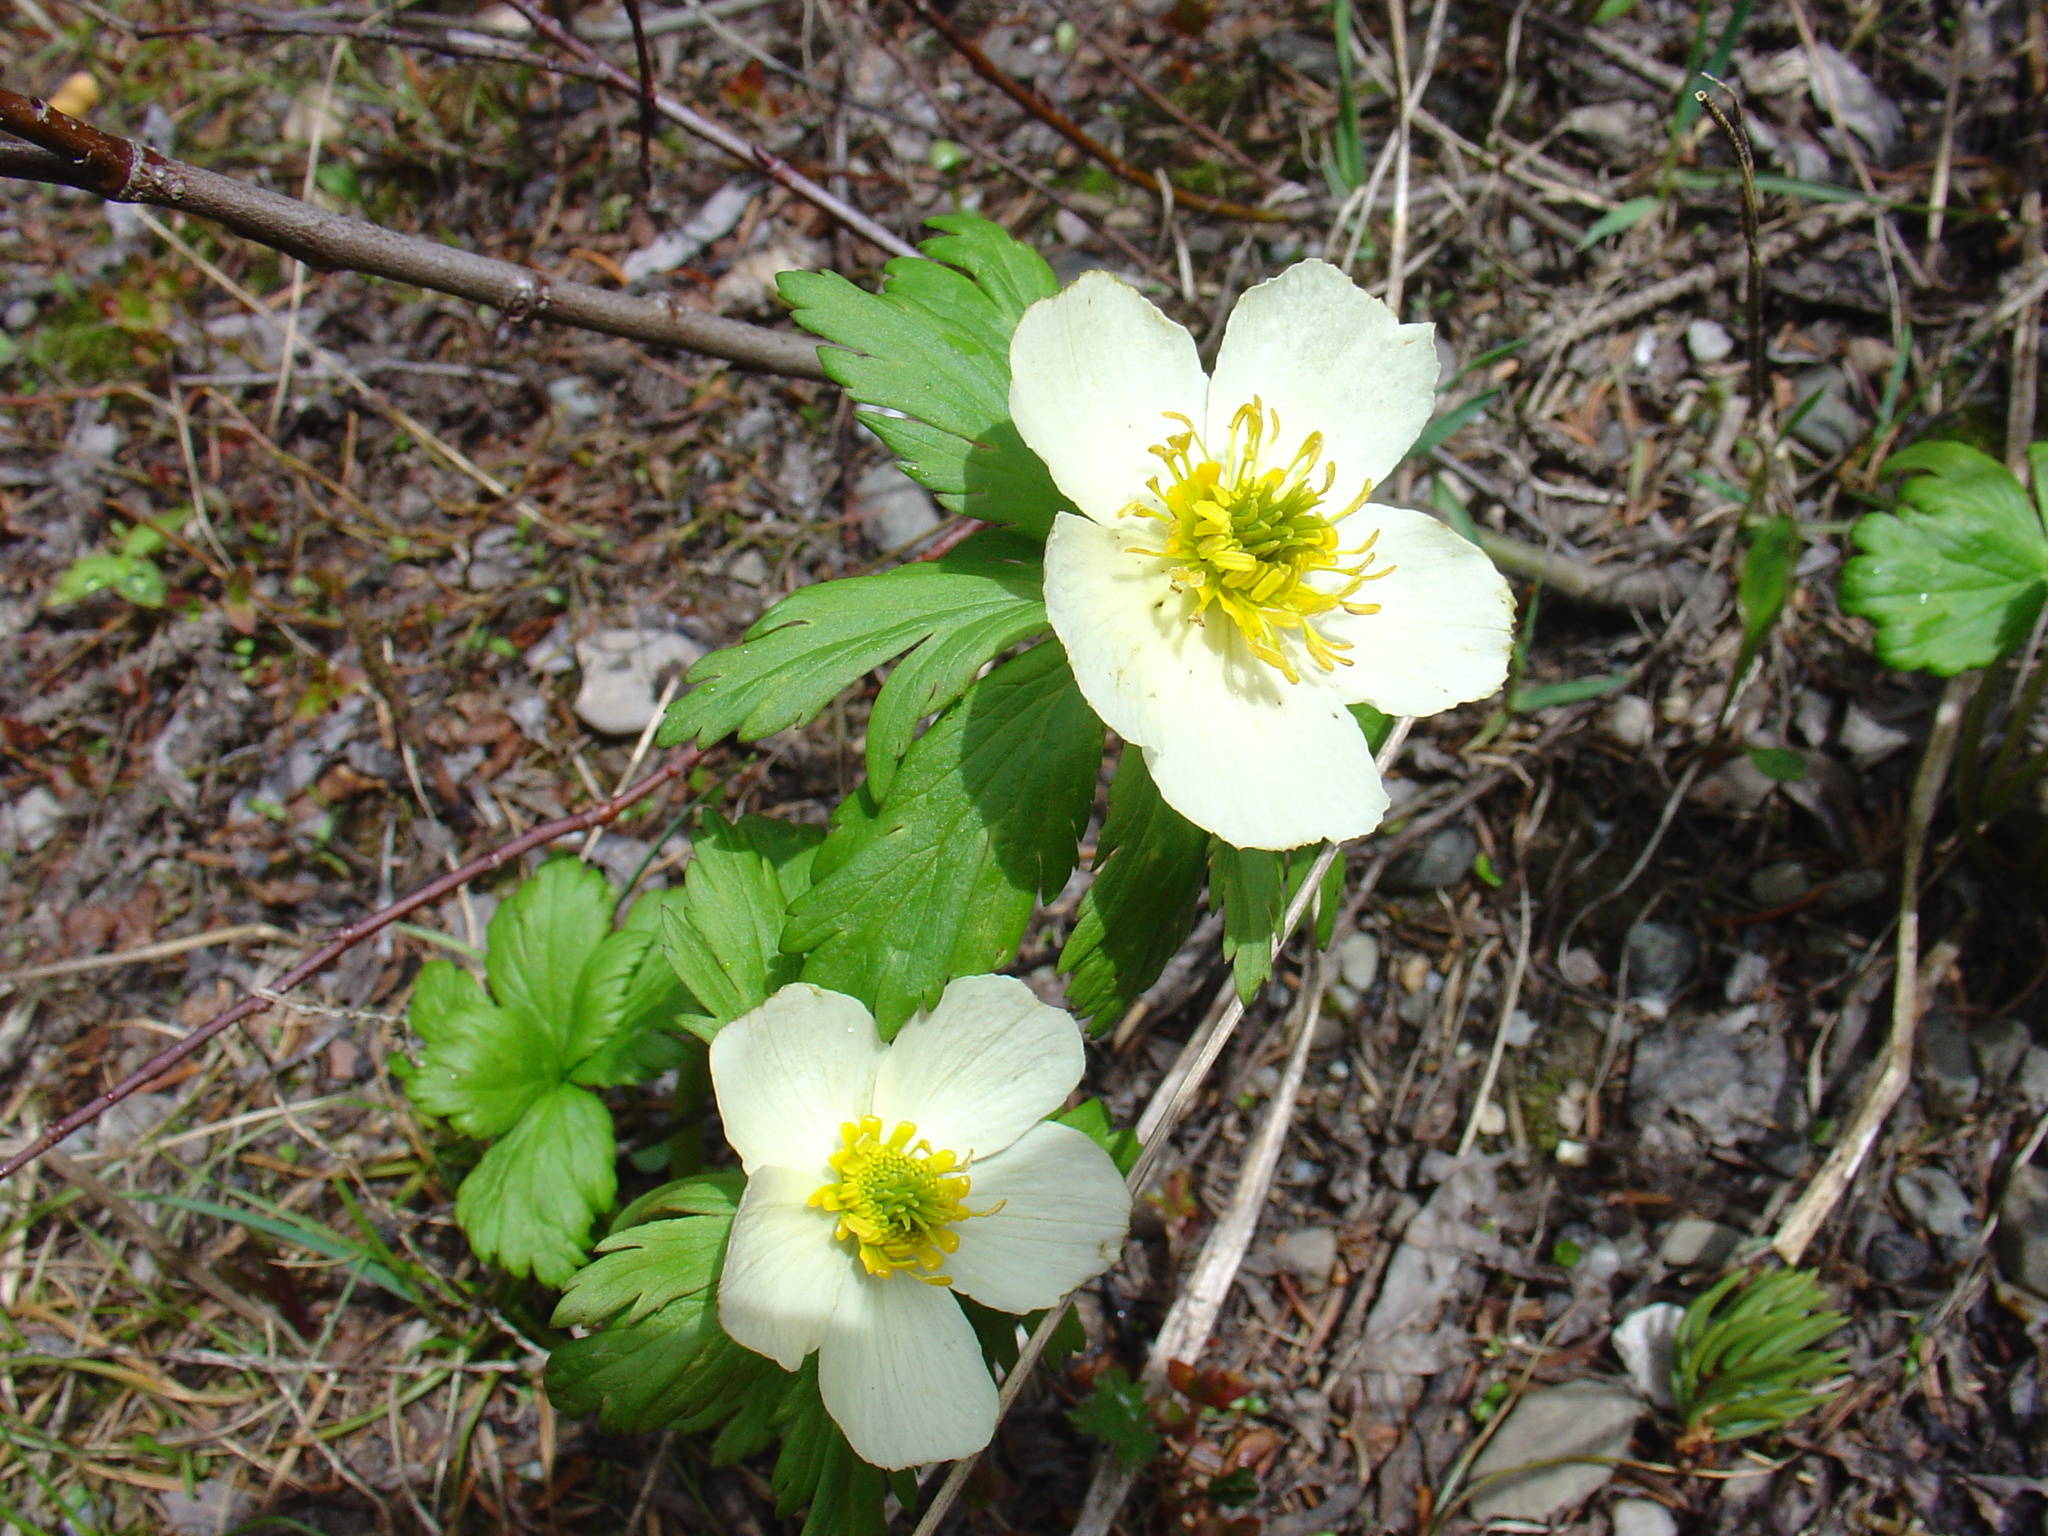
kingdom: Plantae
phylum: Tracheophyta
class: Magnoliopsida
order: Ranunculales
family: Ranunculaceae
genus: Trollius
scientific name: Trollius laxus
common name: American globeflower
